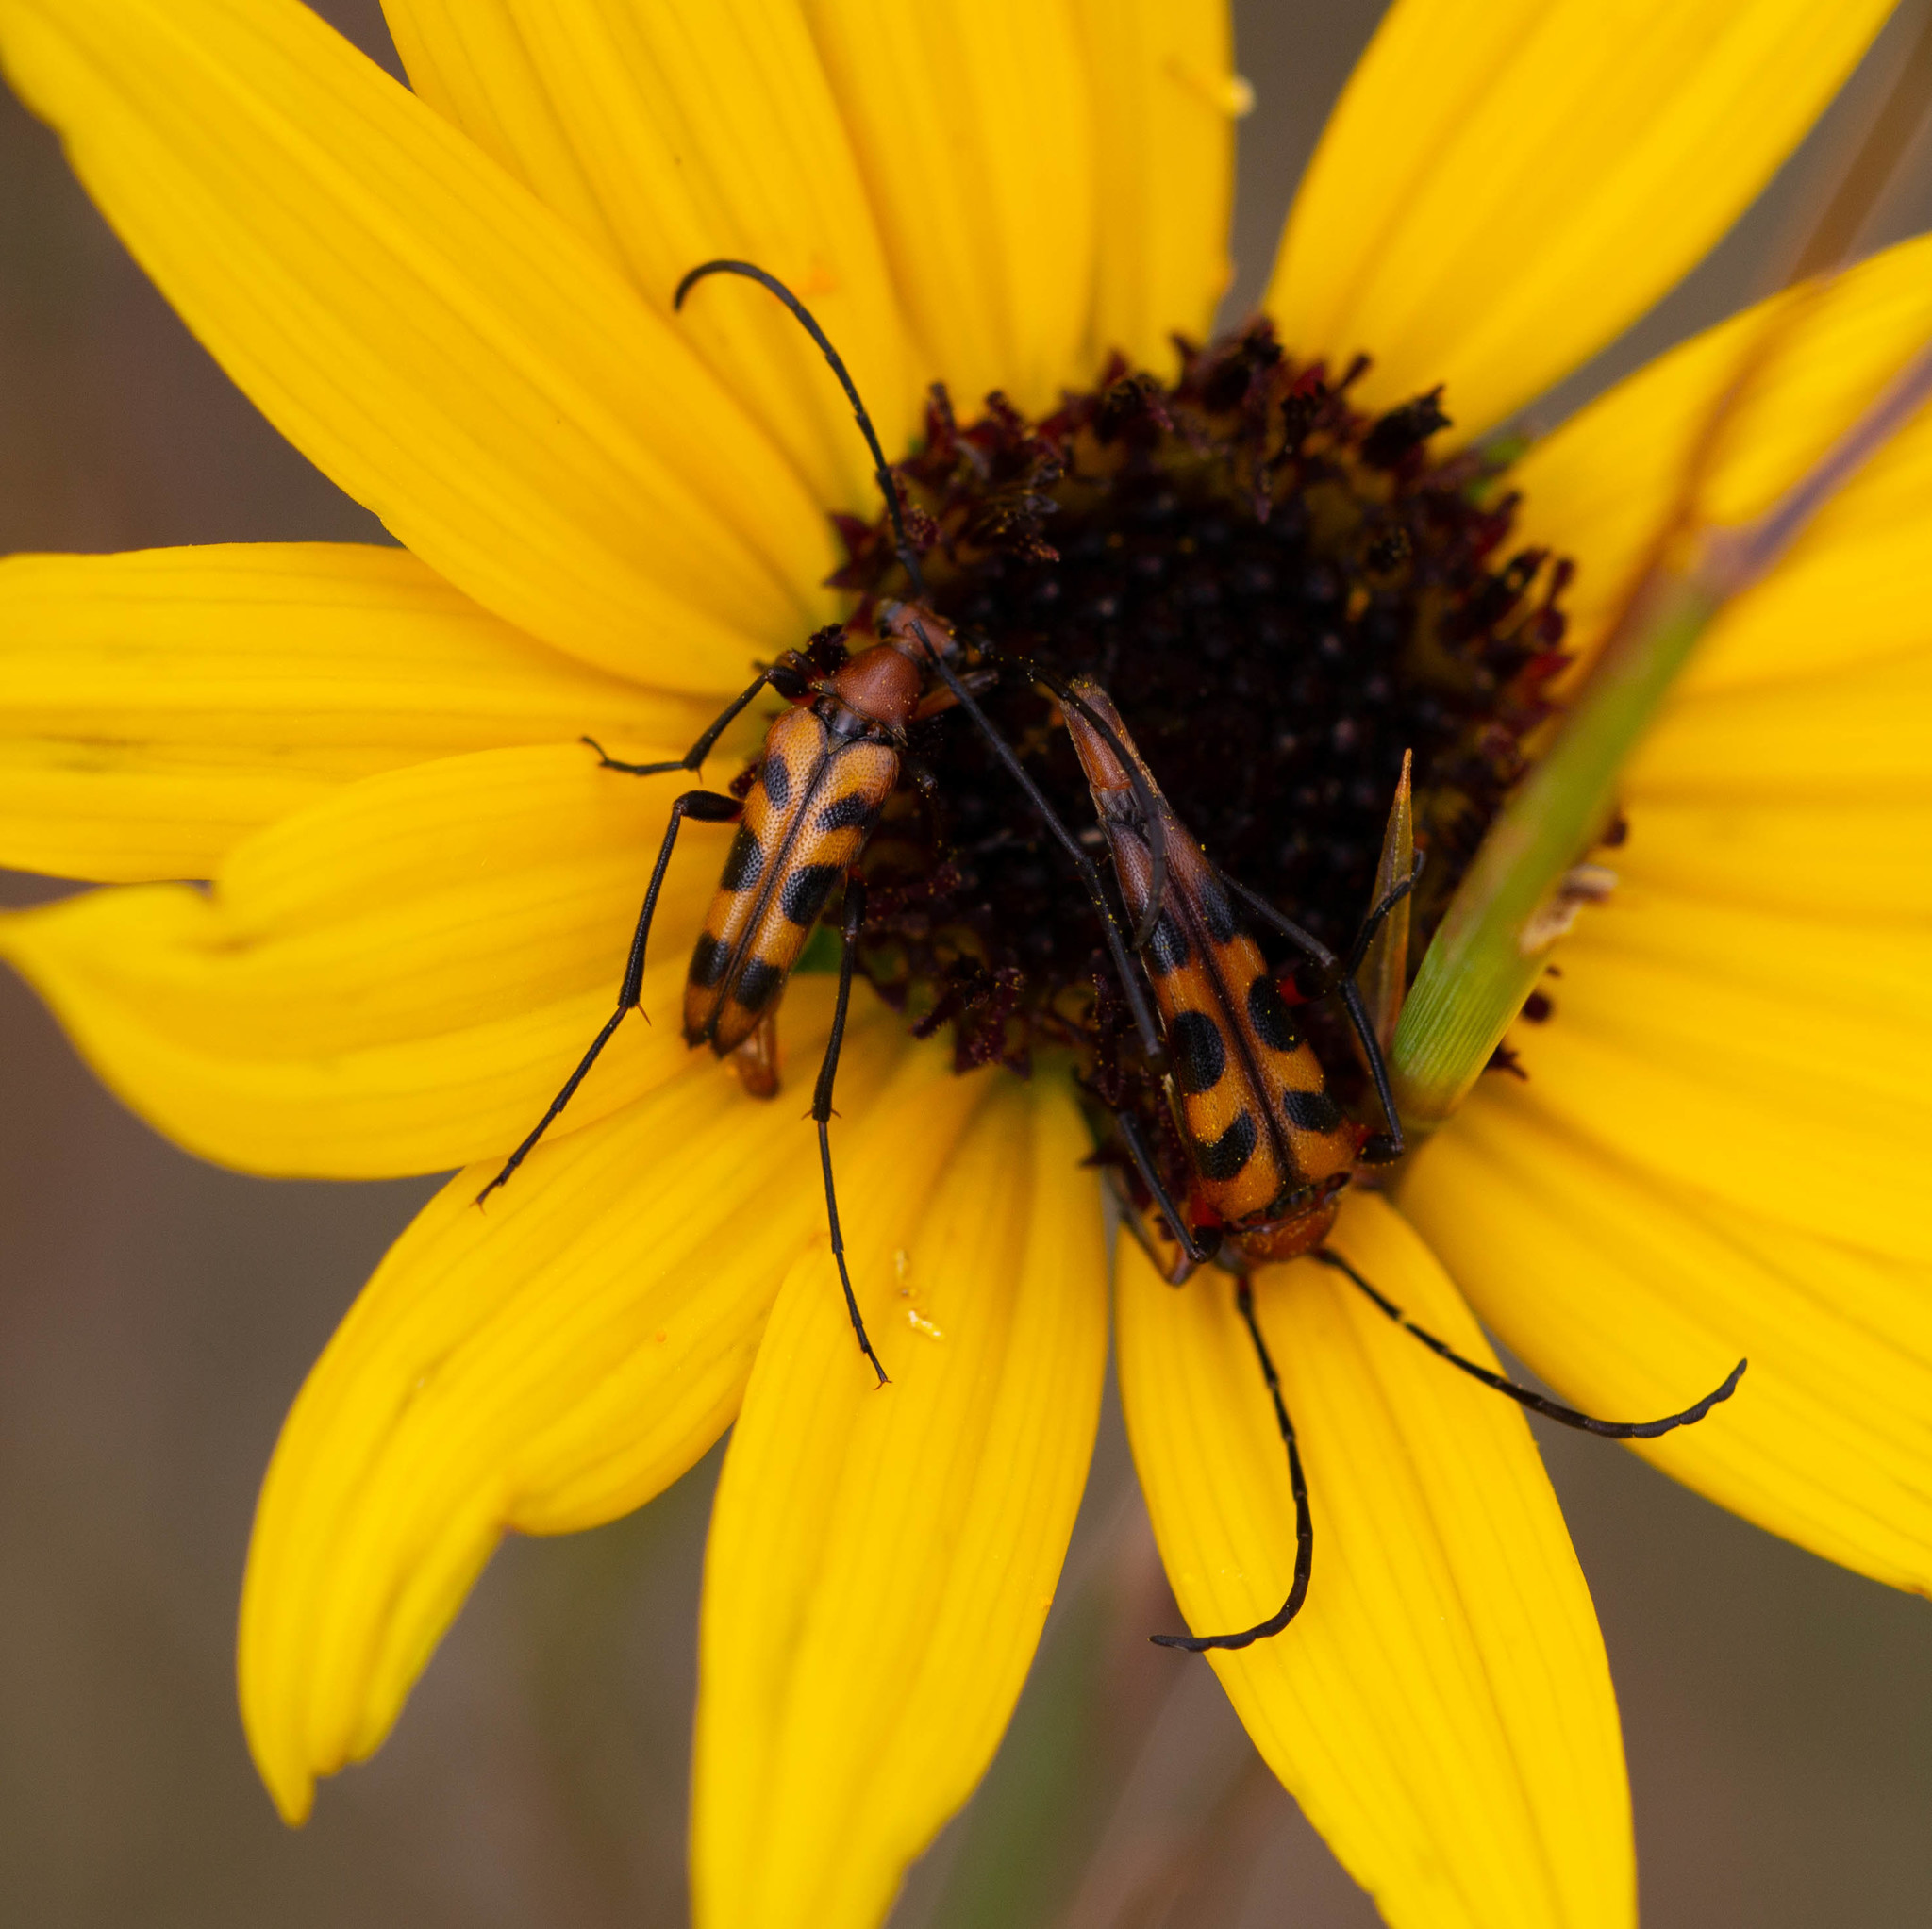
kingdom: Animalia
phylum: Arthropoda
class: Insecta
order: Coleoptera
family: Cerambycidae
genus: Strangalia
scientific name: Strangalia sexnotata
